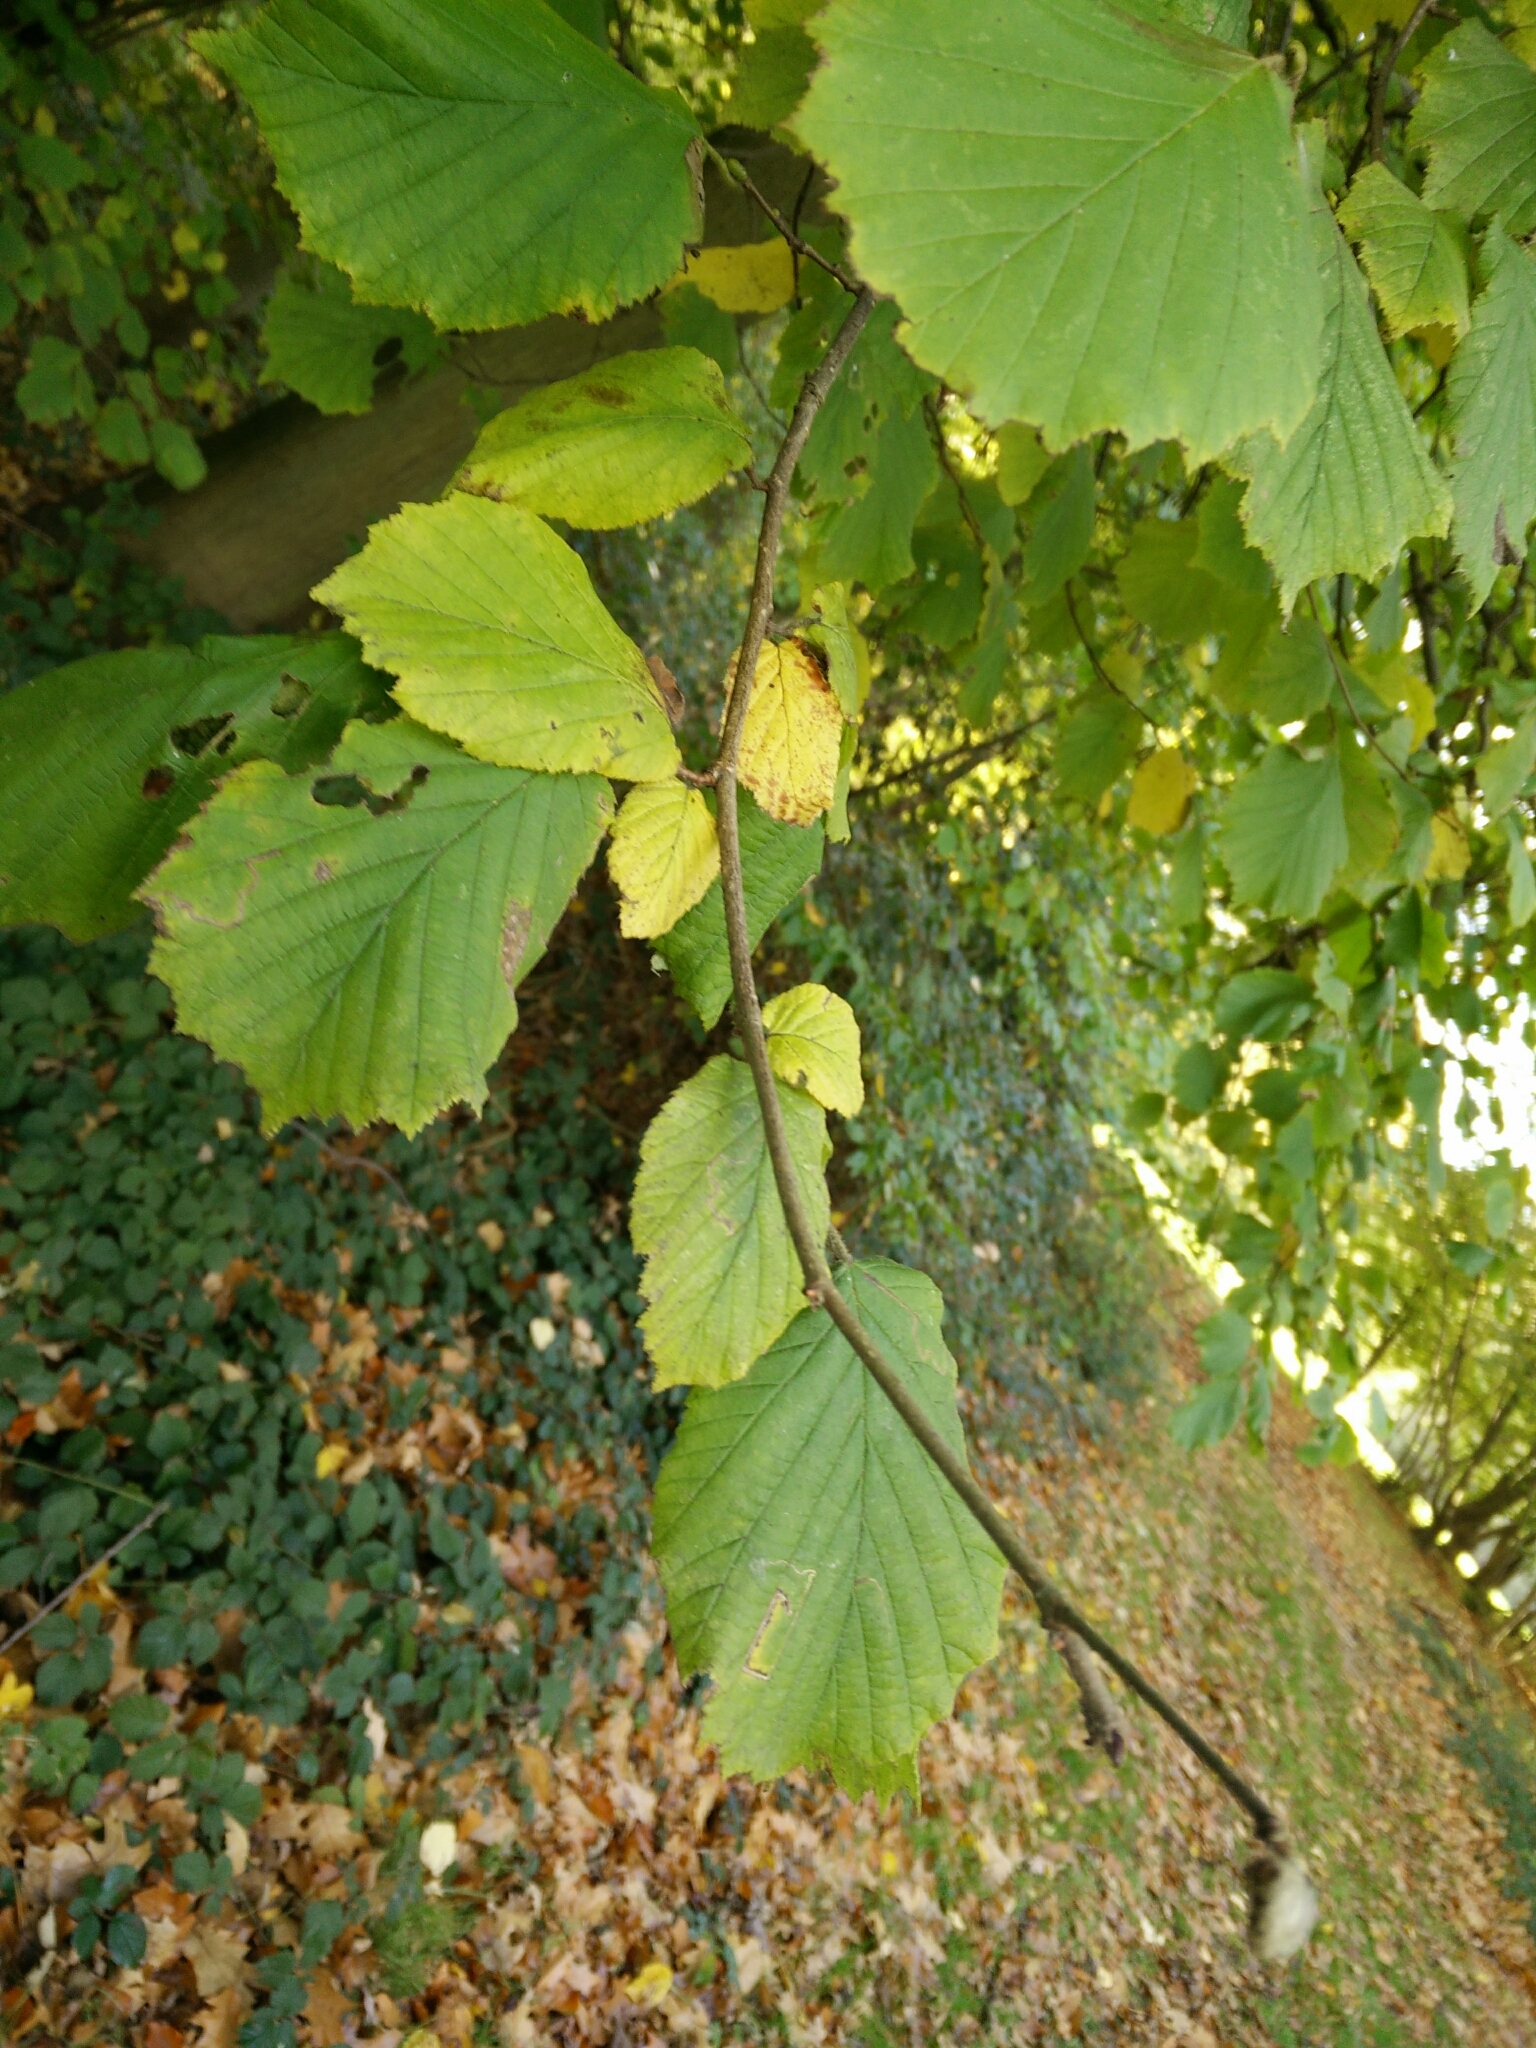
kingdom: Plantae
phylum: Tracheophyta
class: Magnoliopsida
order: Fagales
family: Betulaceae
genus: Corylus
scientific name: Corylus avellana
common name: European hazel
